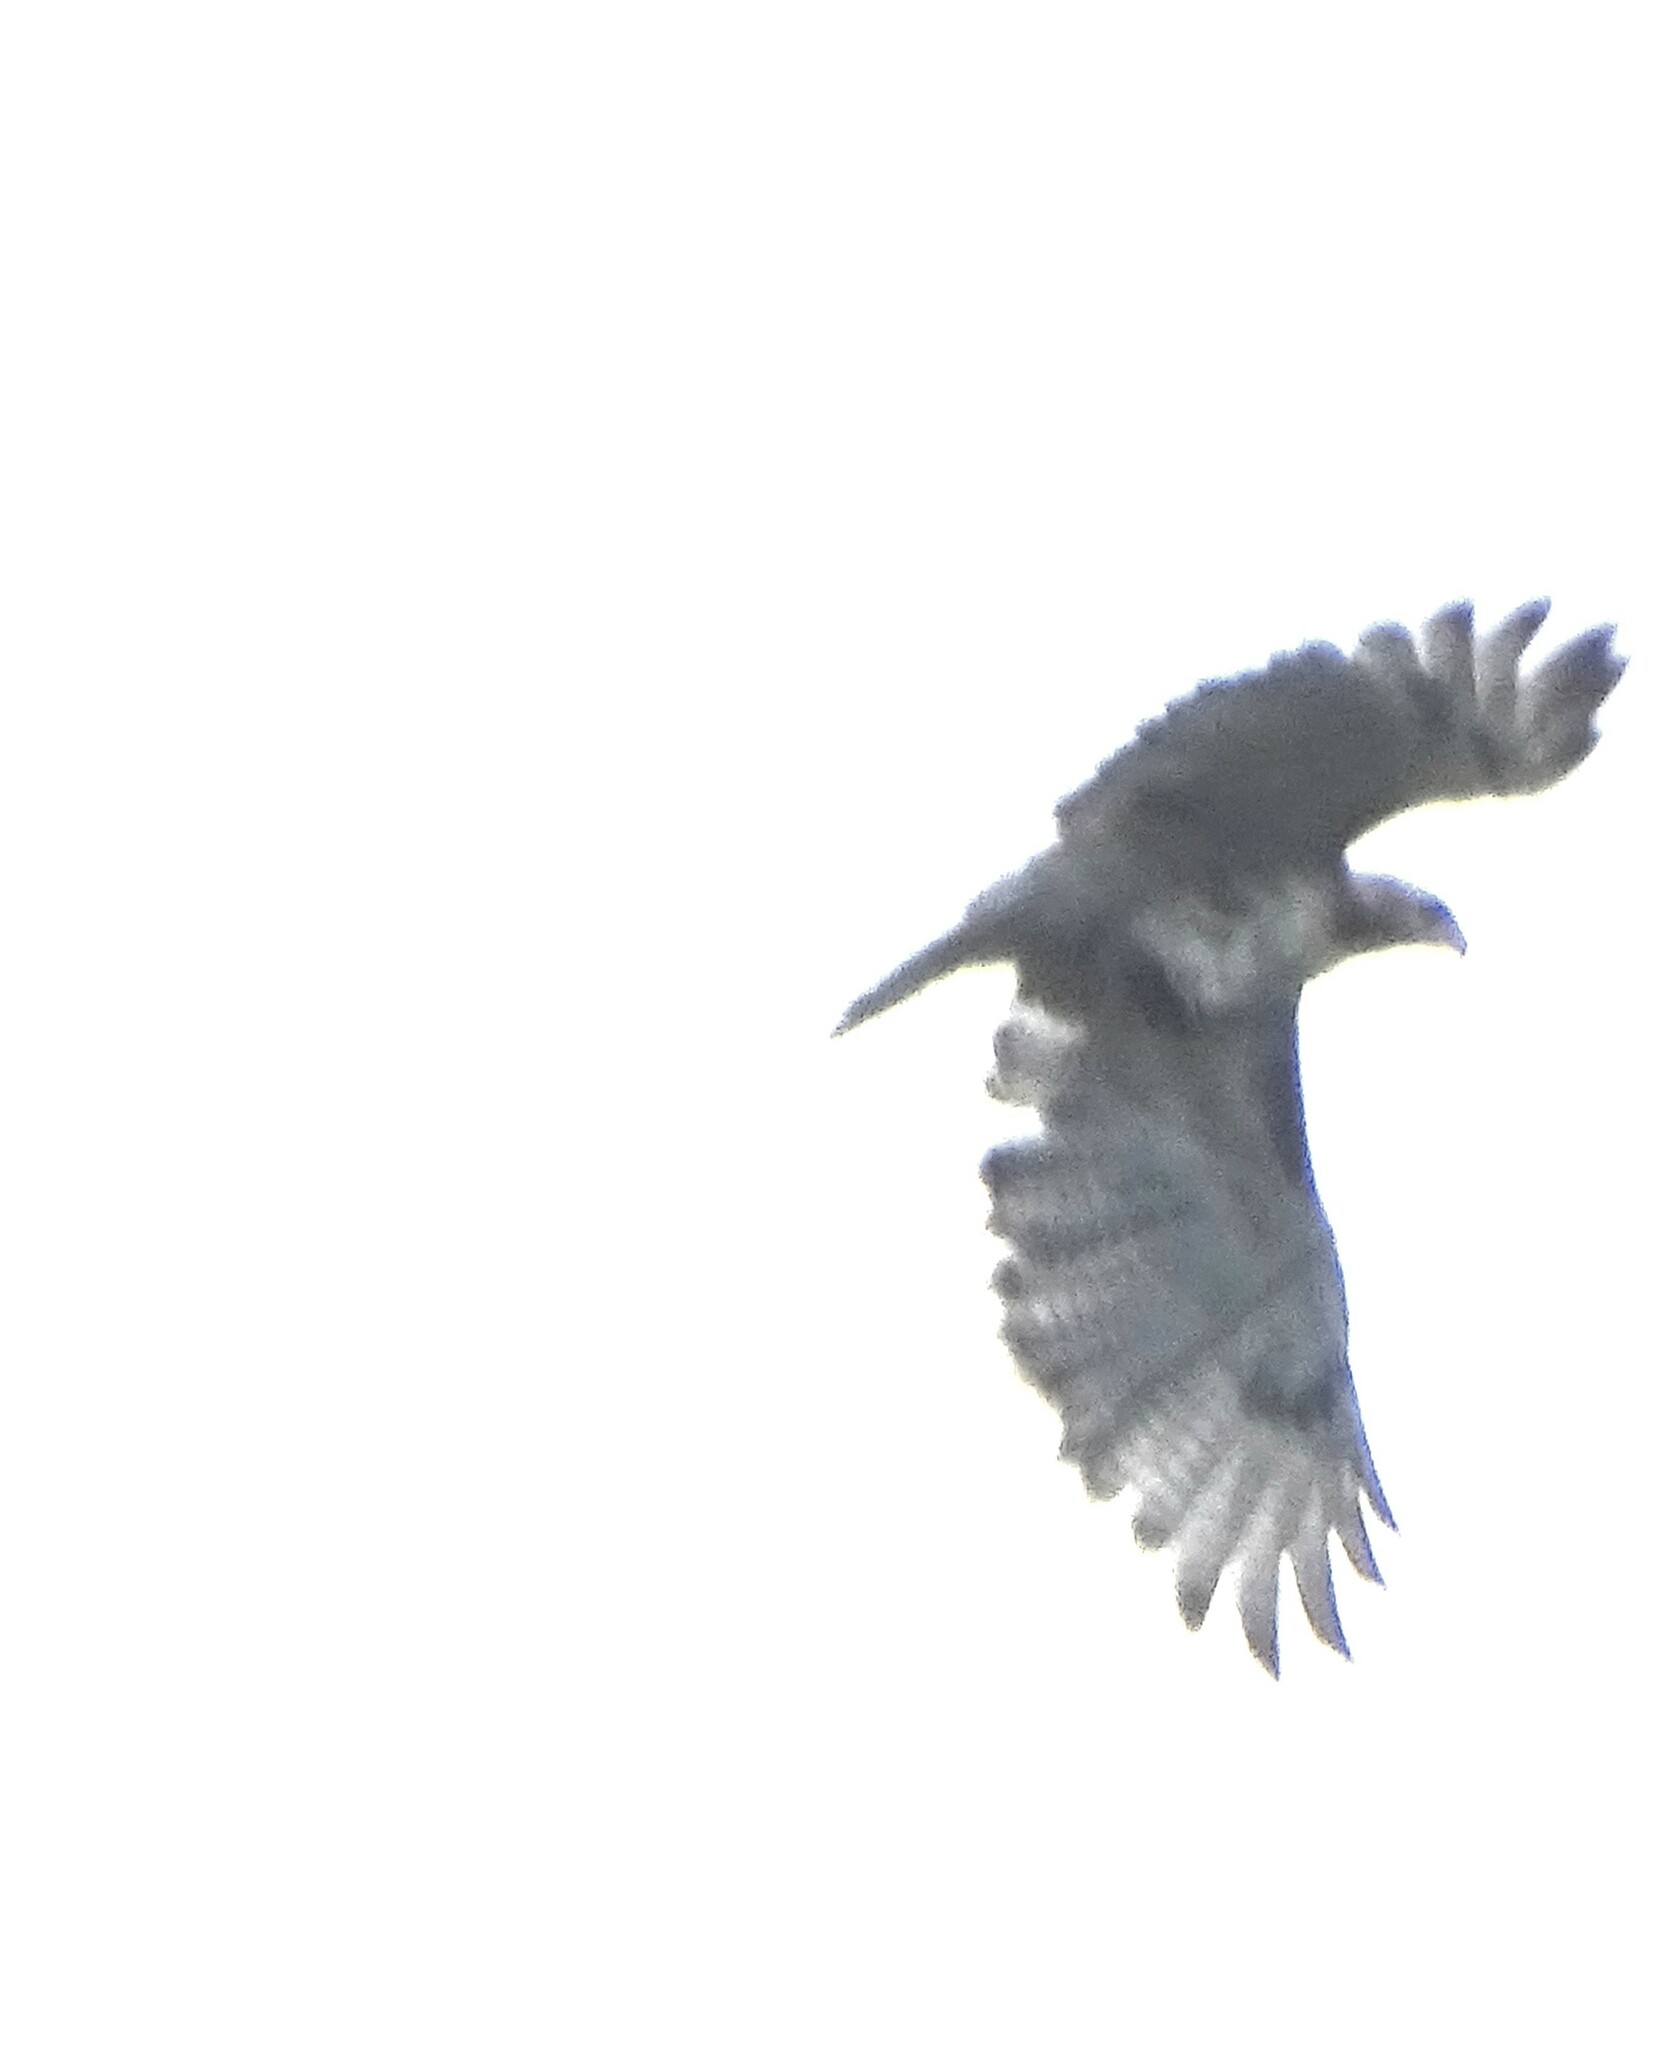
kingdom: Animalia
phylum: Chordata
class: Aves
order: Accipitriformes
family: Accipitridae
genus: Buteo
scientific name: Buteo jamaicensis
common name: Red-tailed hawk
